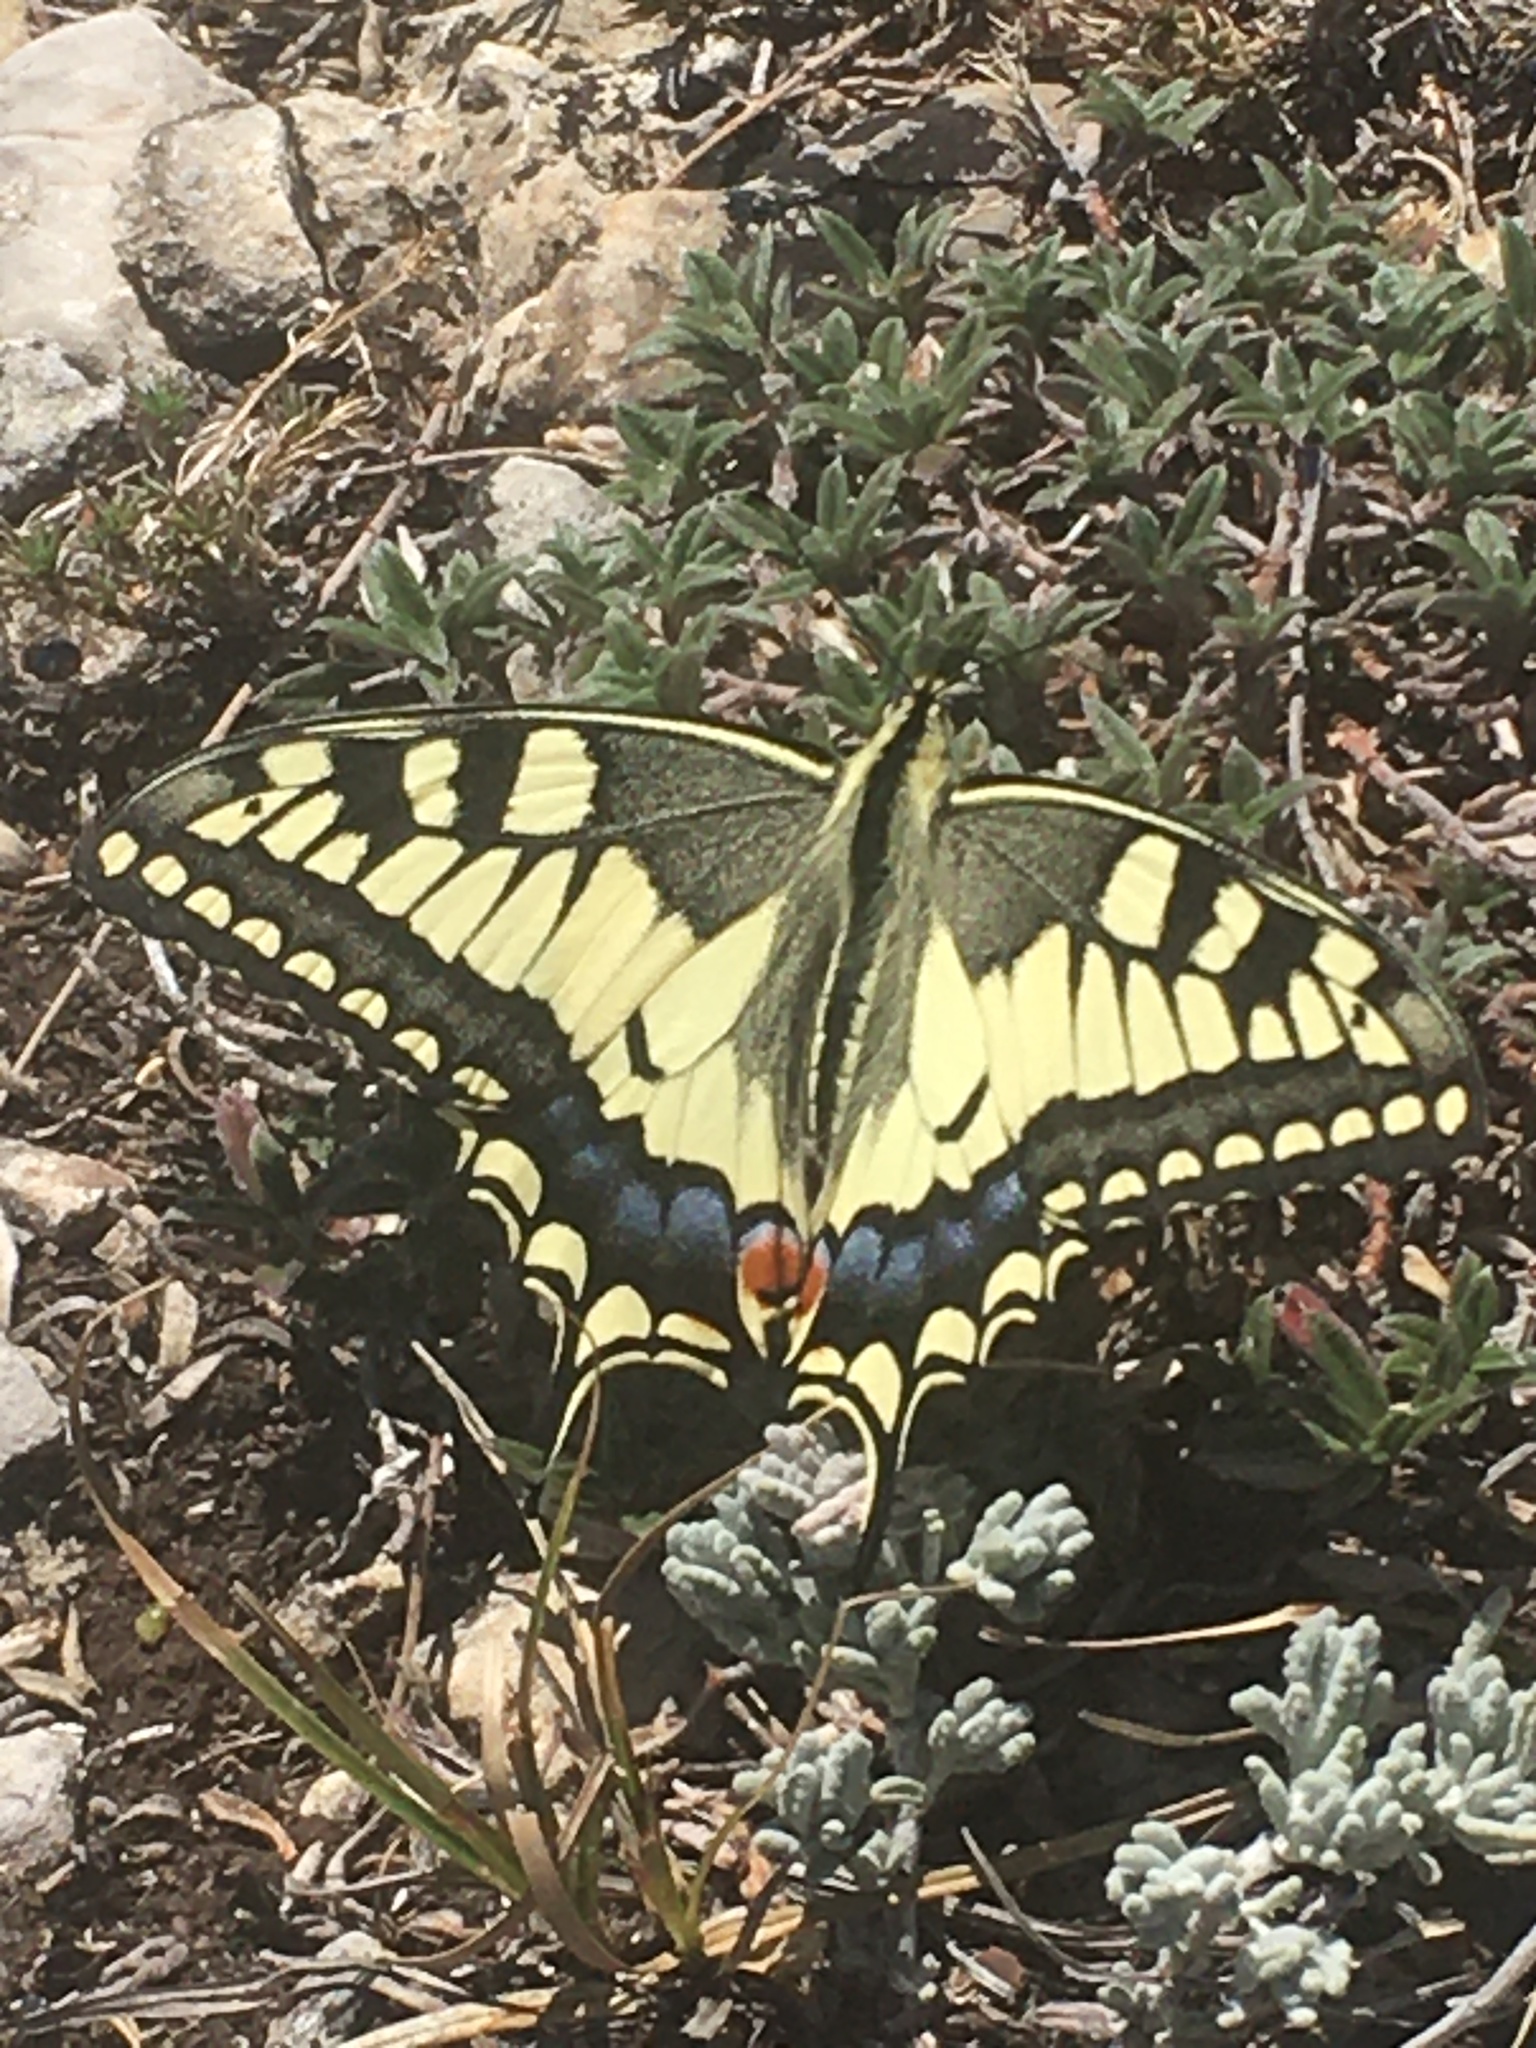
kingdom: Animalia
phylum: Arthropoda
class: Insecta
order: Lepidoptera
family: Papilionidae
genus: Papilio
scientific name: Papilio machaon
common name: Swallowtail
